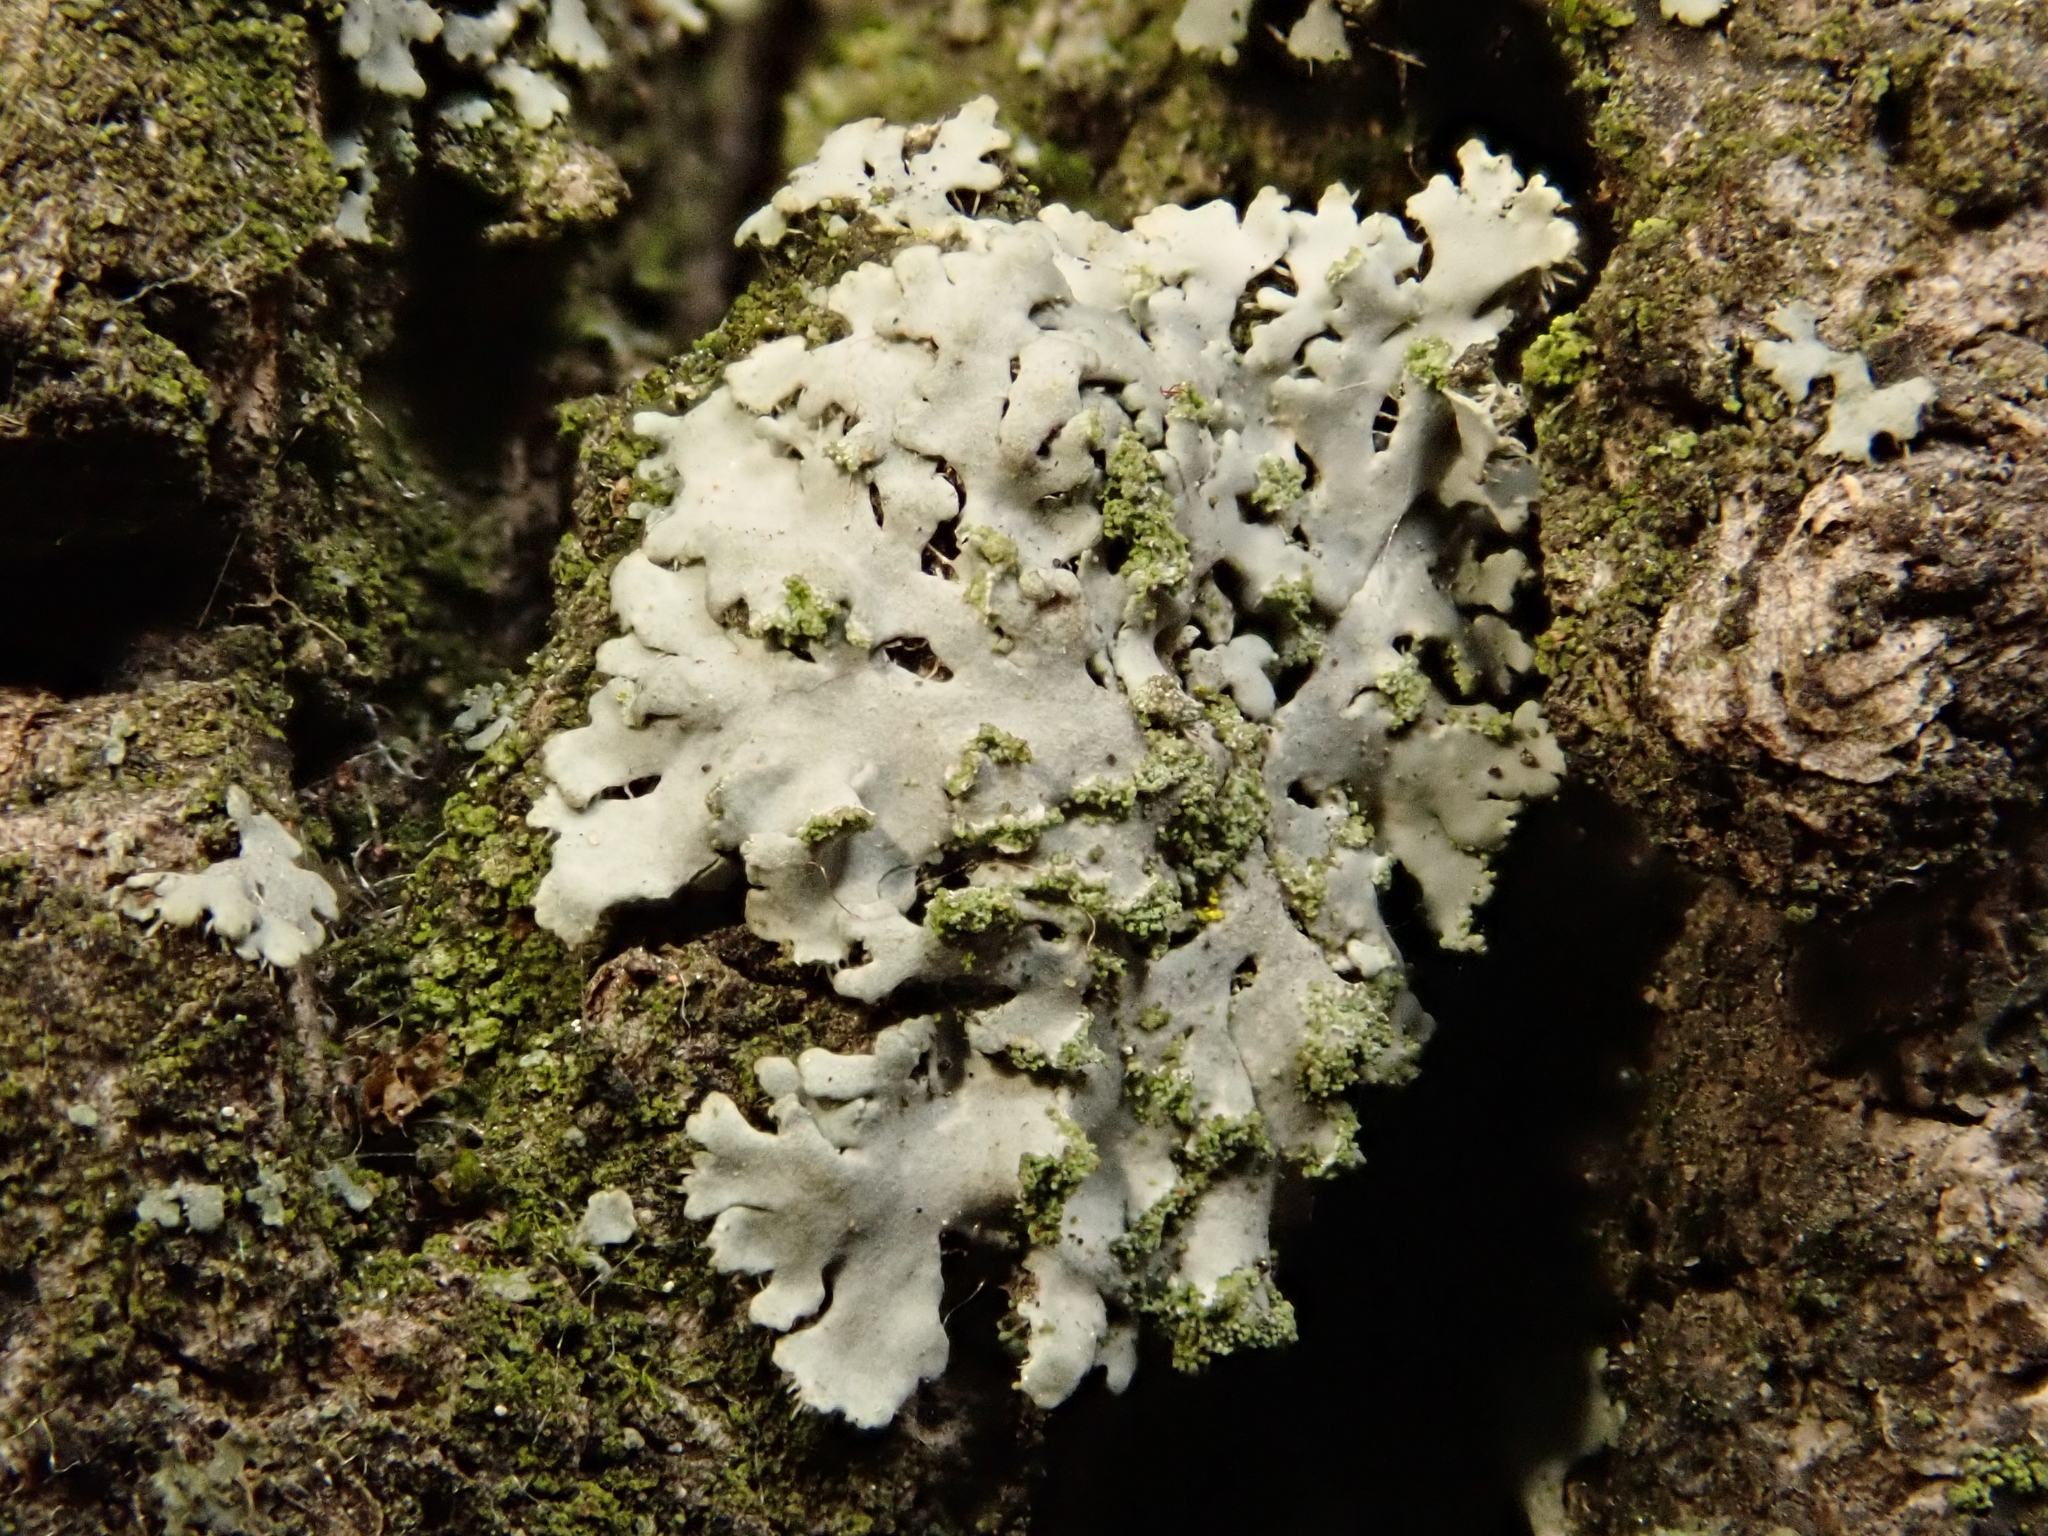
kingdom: Fungi
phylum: Ascomycota
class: Lecanoromycetes
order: Caliciales
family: Physciaceae
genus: Phaeophyscia
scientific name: Phaeophyscia orbicularis
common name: Mealy shadow lichen
